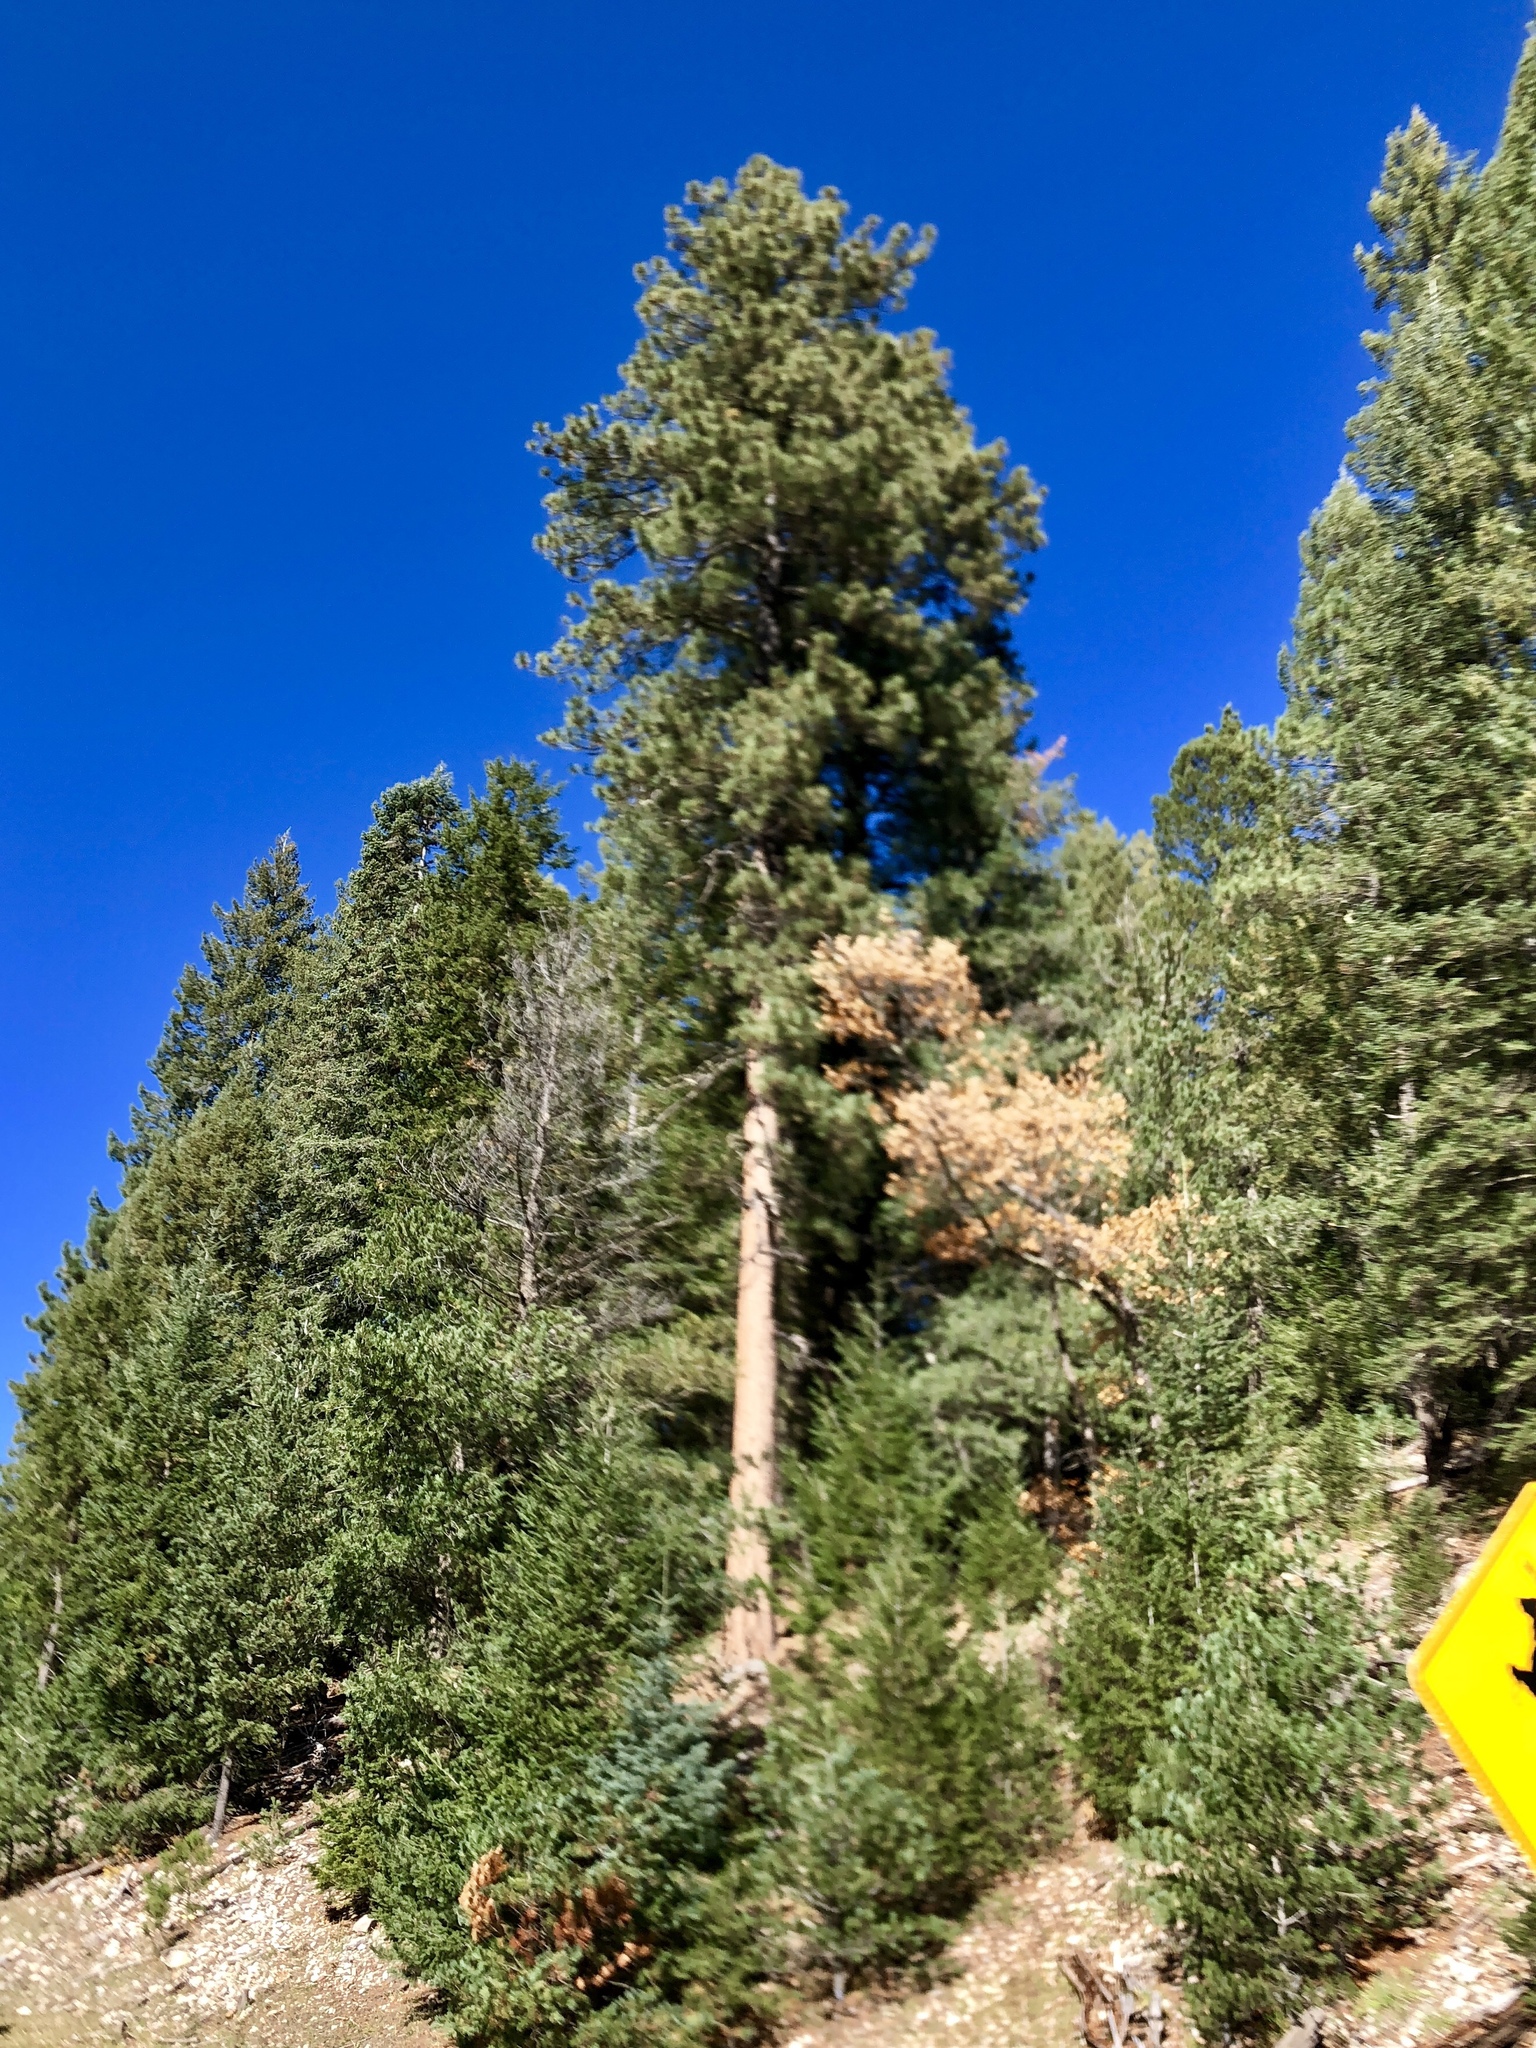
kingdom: Plantae
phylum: Tracheophyta
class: Pinopsida
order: Pinales
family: Pinaceae
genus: Pinus
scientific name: Pinus ponderosa
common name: Western yellow-pine
